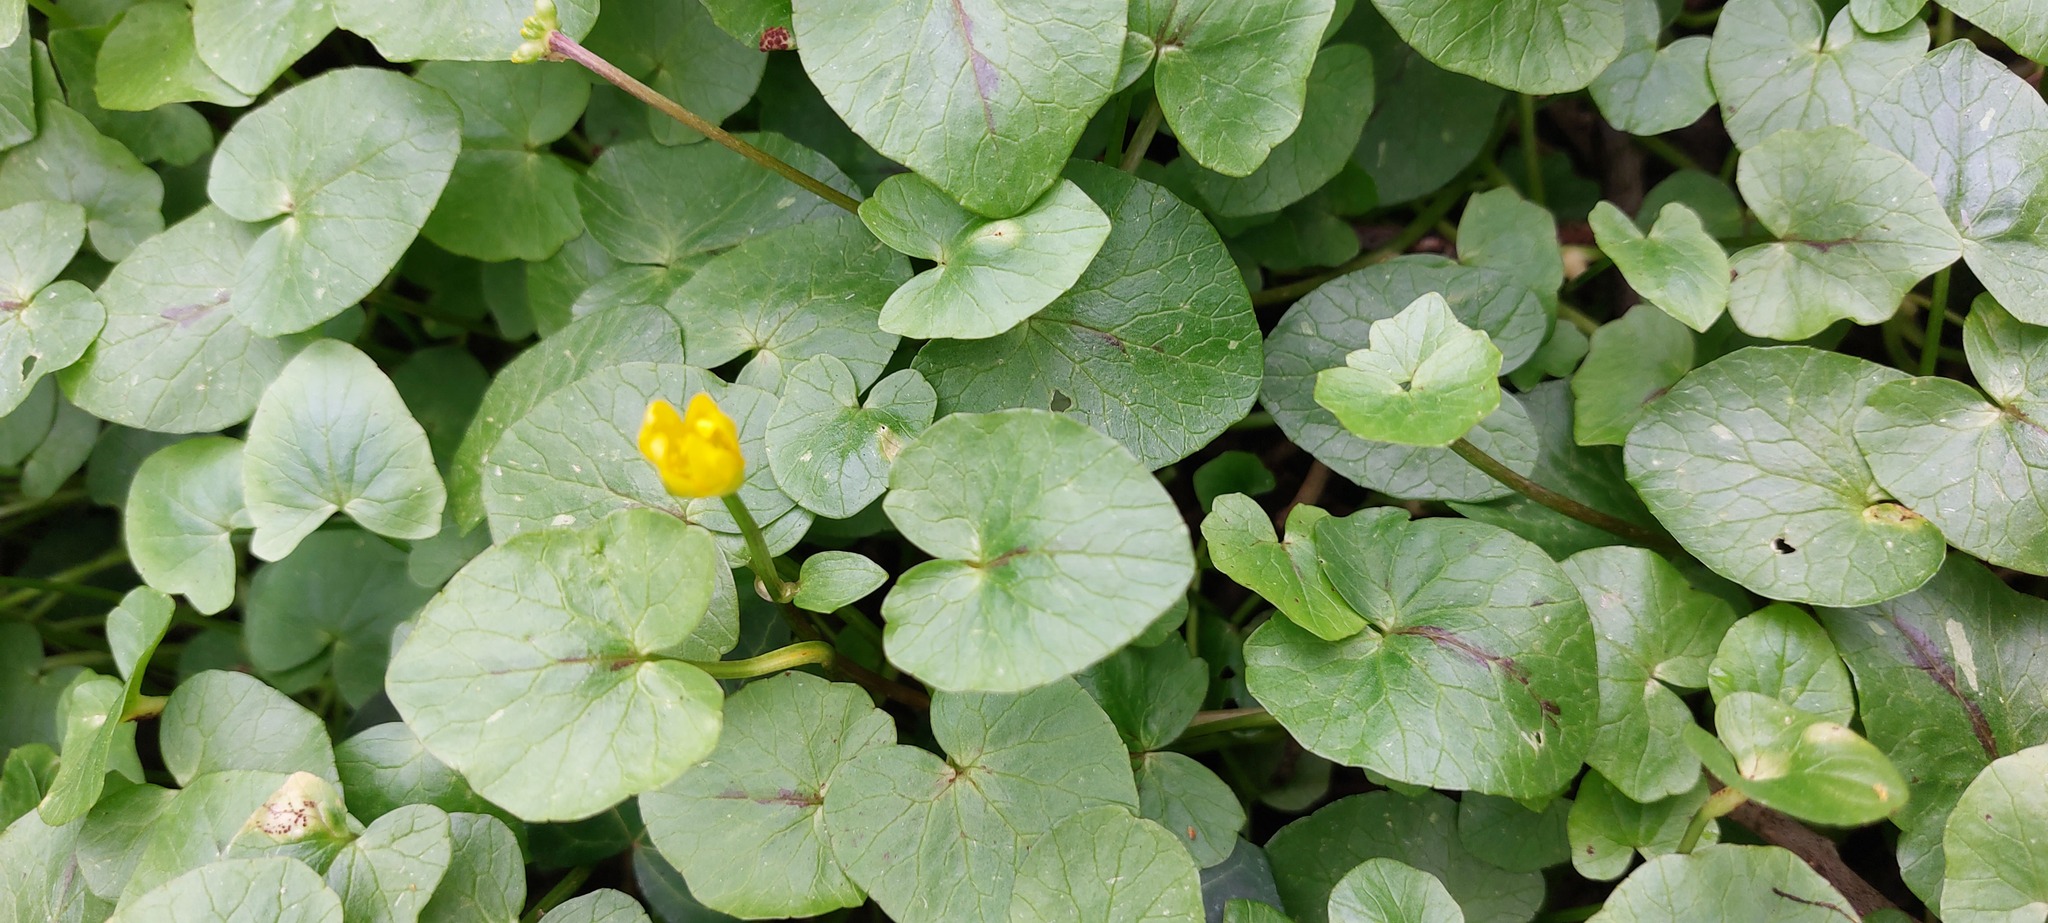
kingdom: Plantae
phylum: Tracheophyta
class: Magnoliopsida
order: Ranunculales
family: Ranunculaceae
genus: Ficaria
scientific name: Ficaria verna
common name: Lesser celandine
